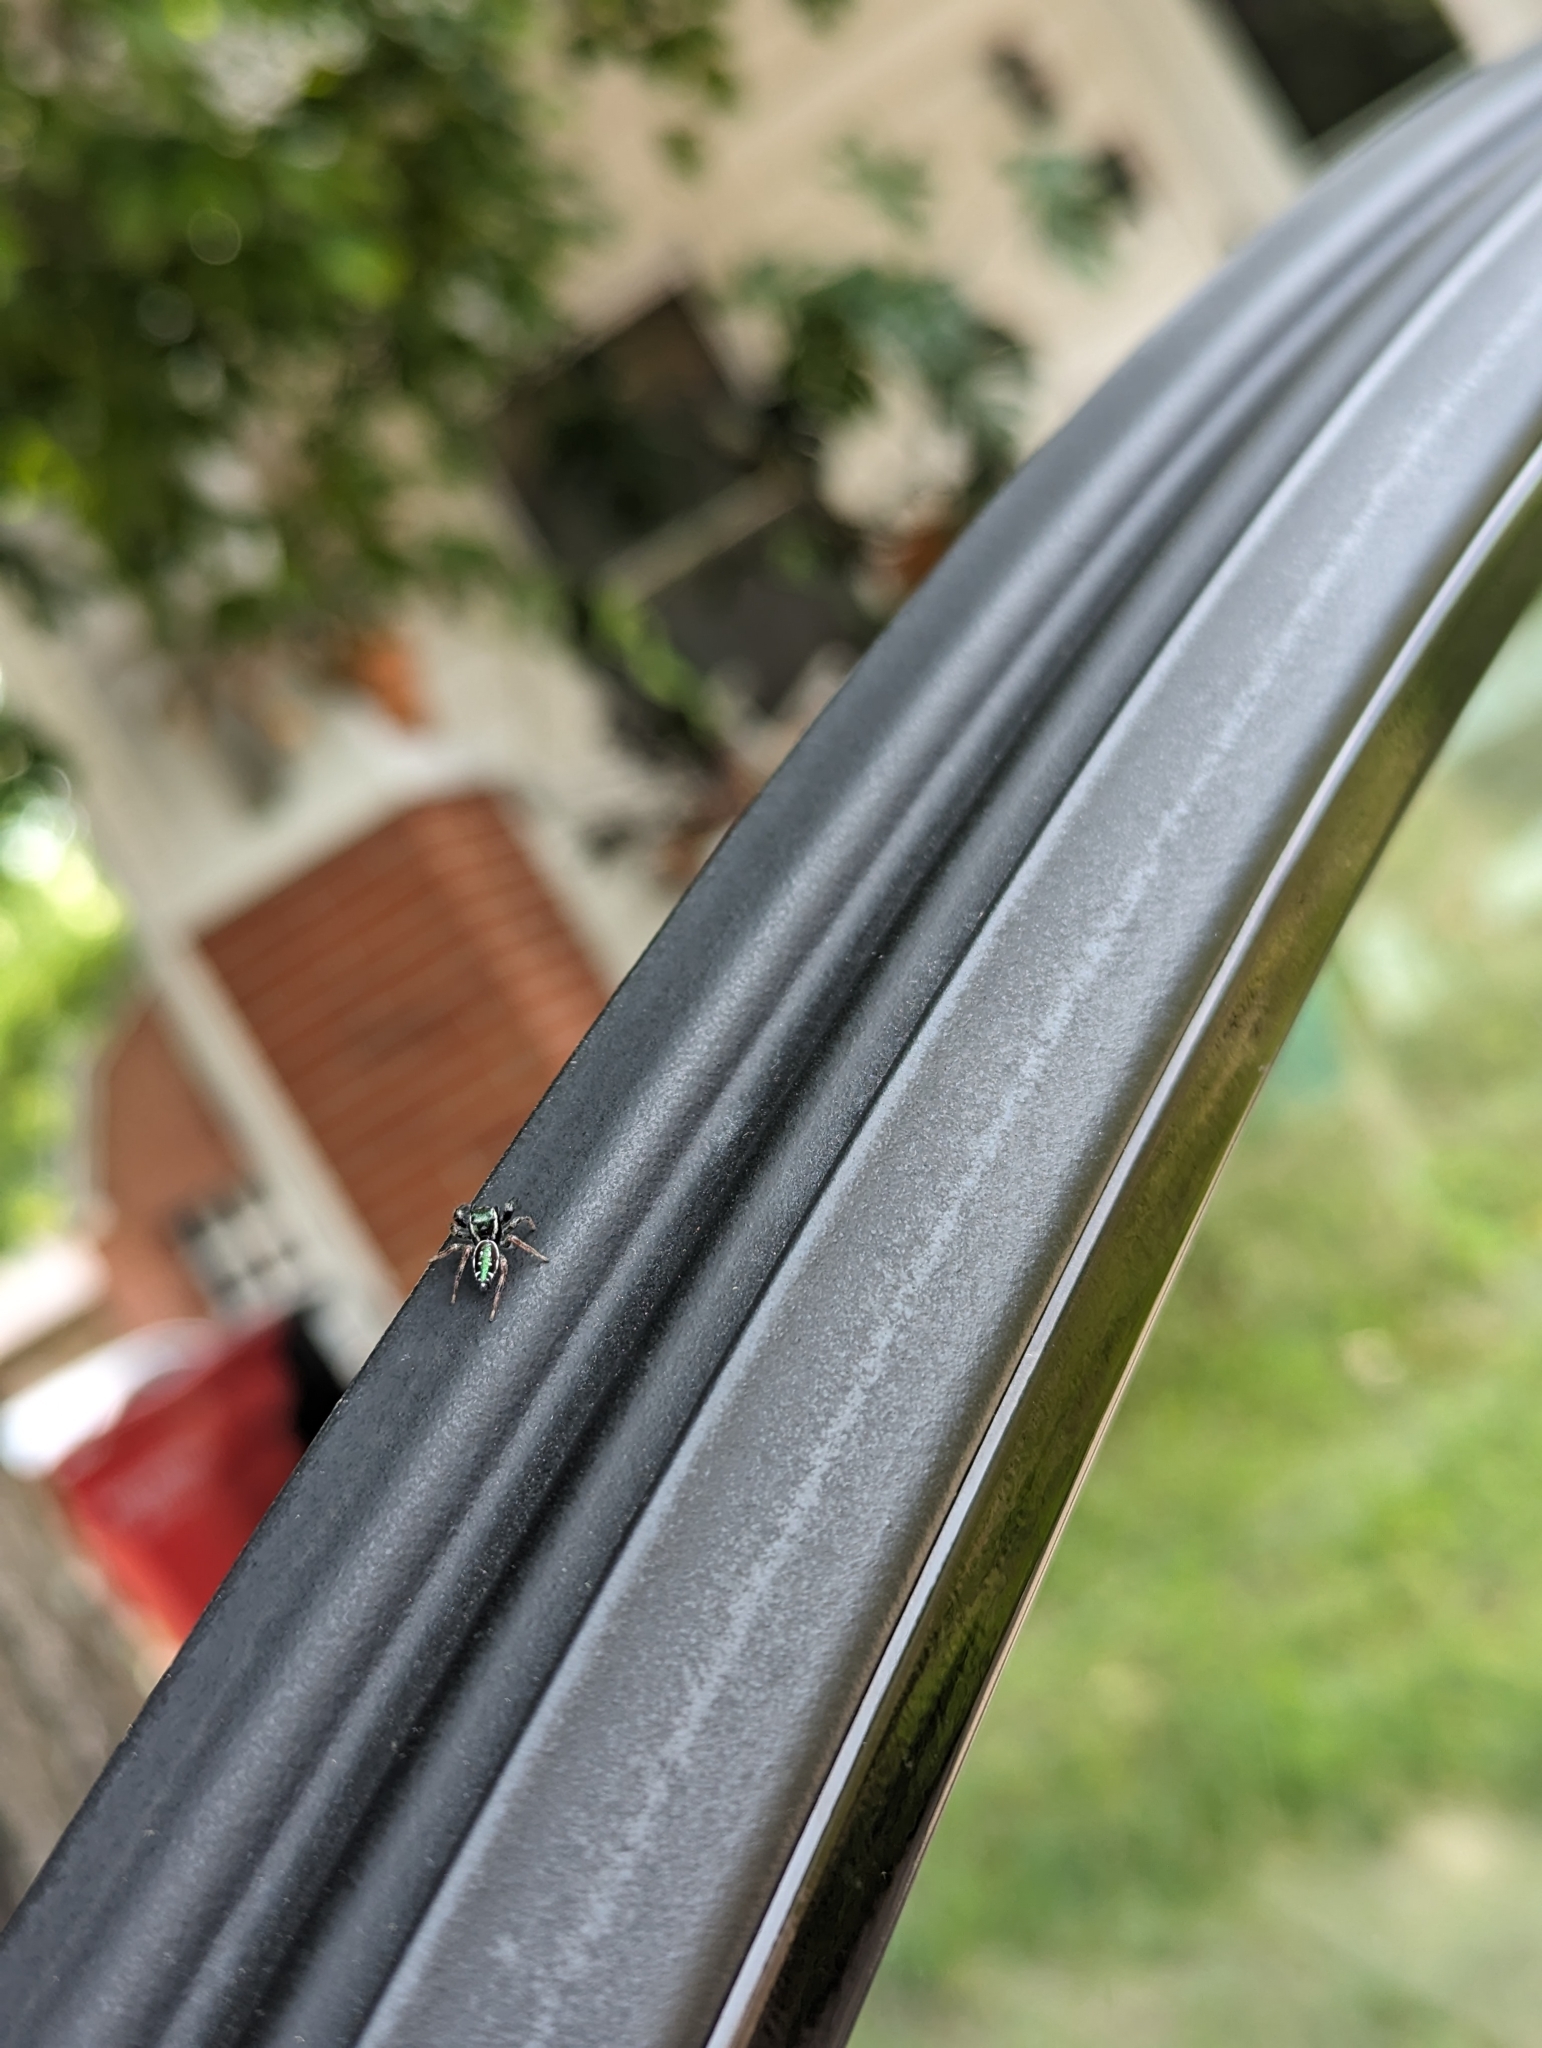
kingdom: Animalia
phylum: Arthropoda
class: Arachnida
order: Araneae
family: Salticidae
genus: Paraphidippus
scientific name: Paraphidippus aurantius
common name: Jumping spiders
